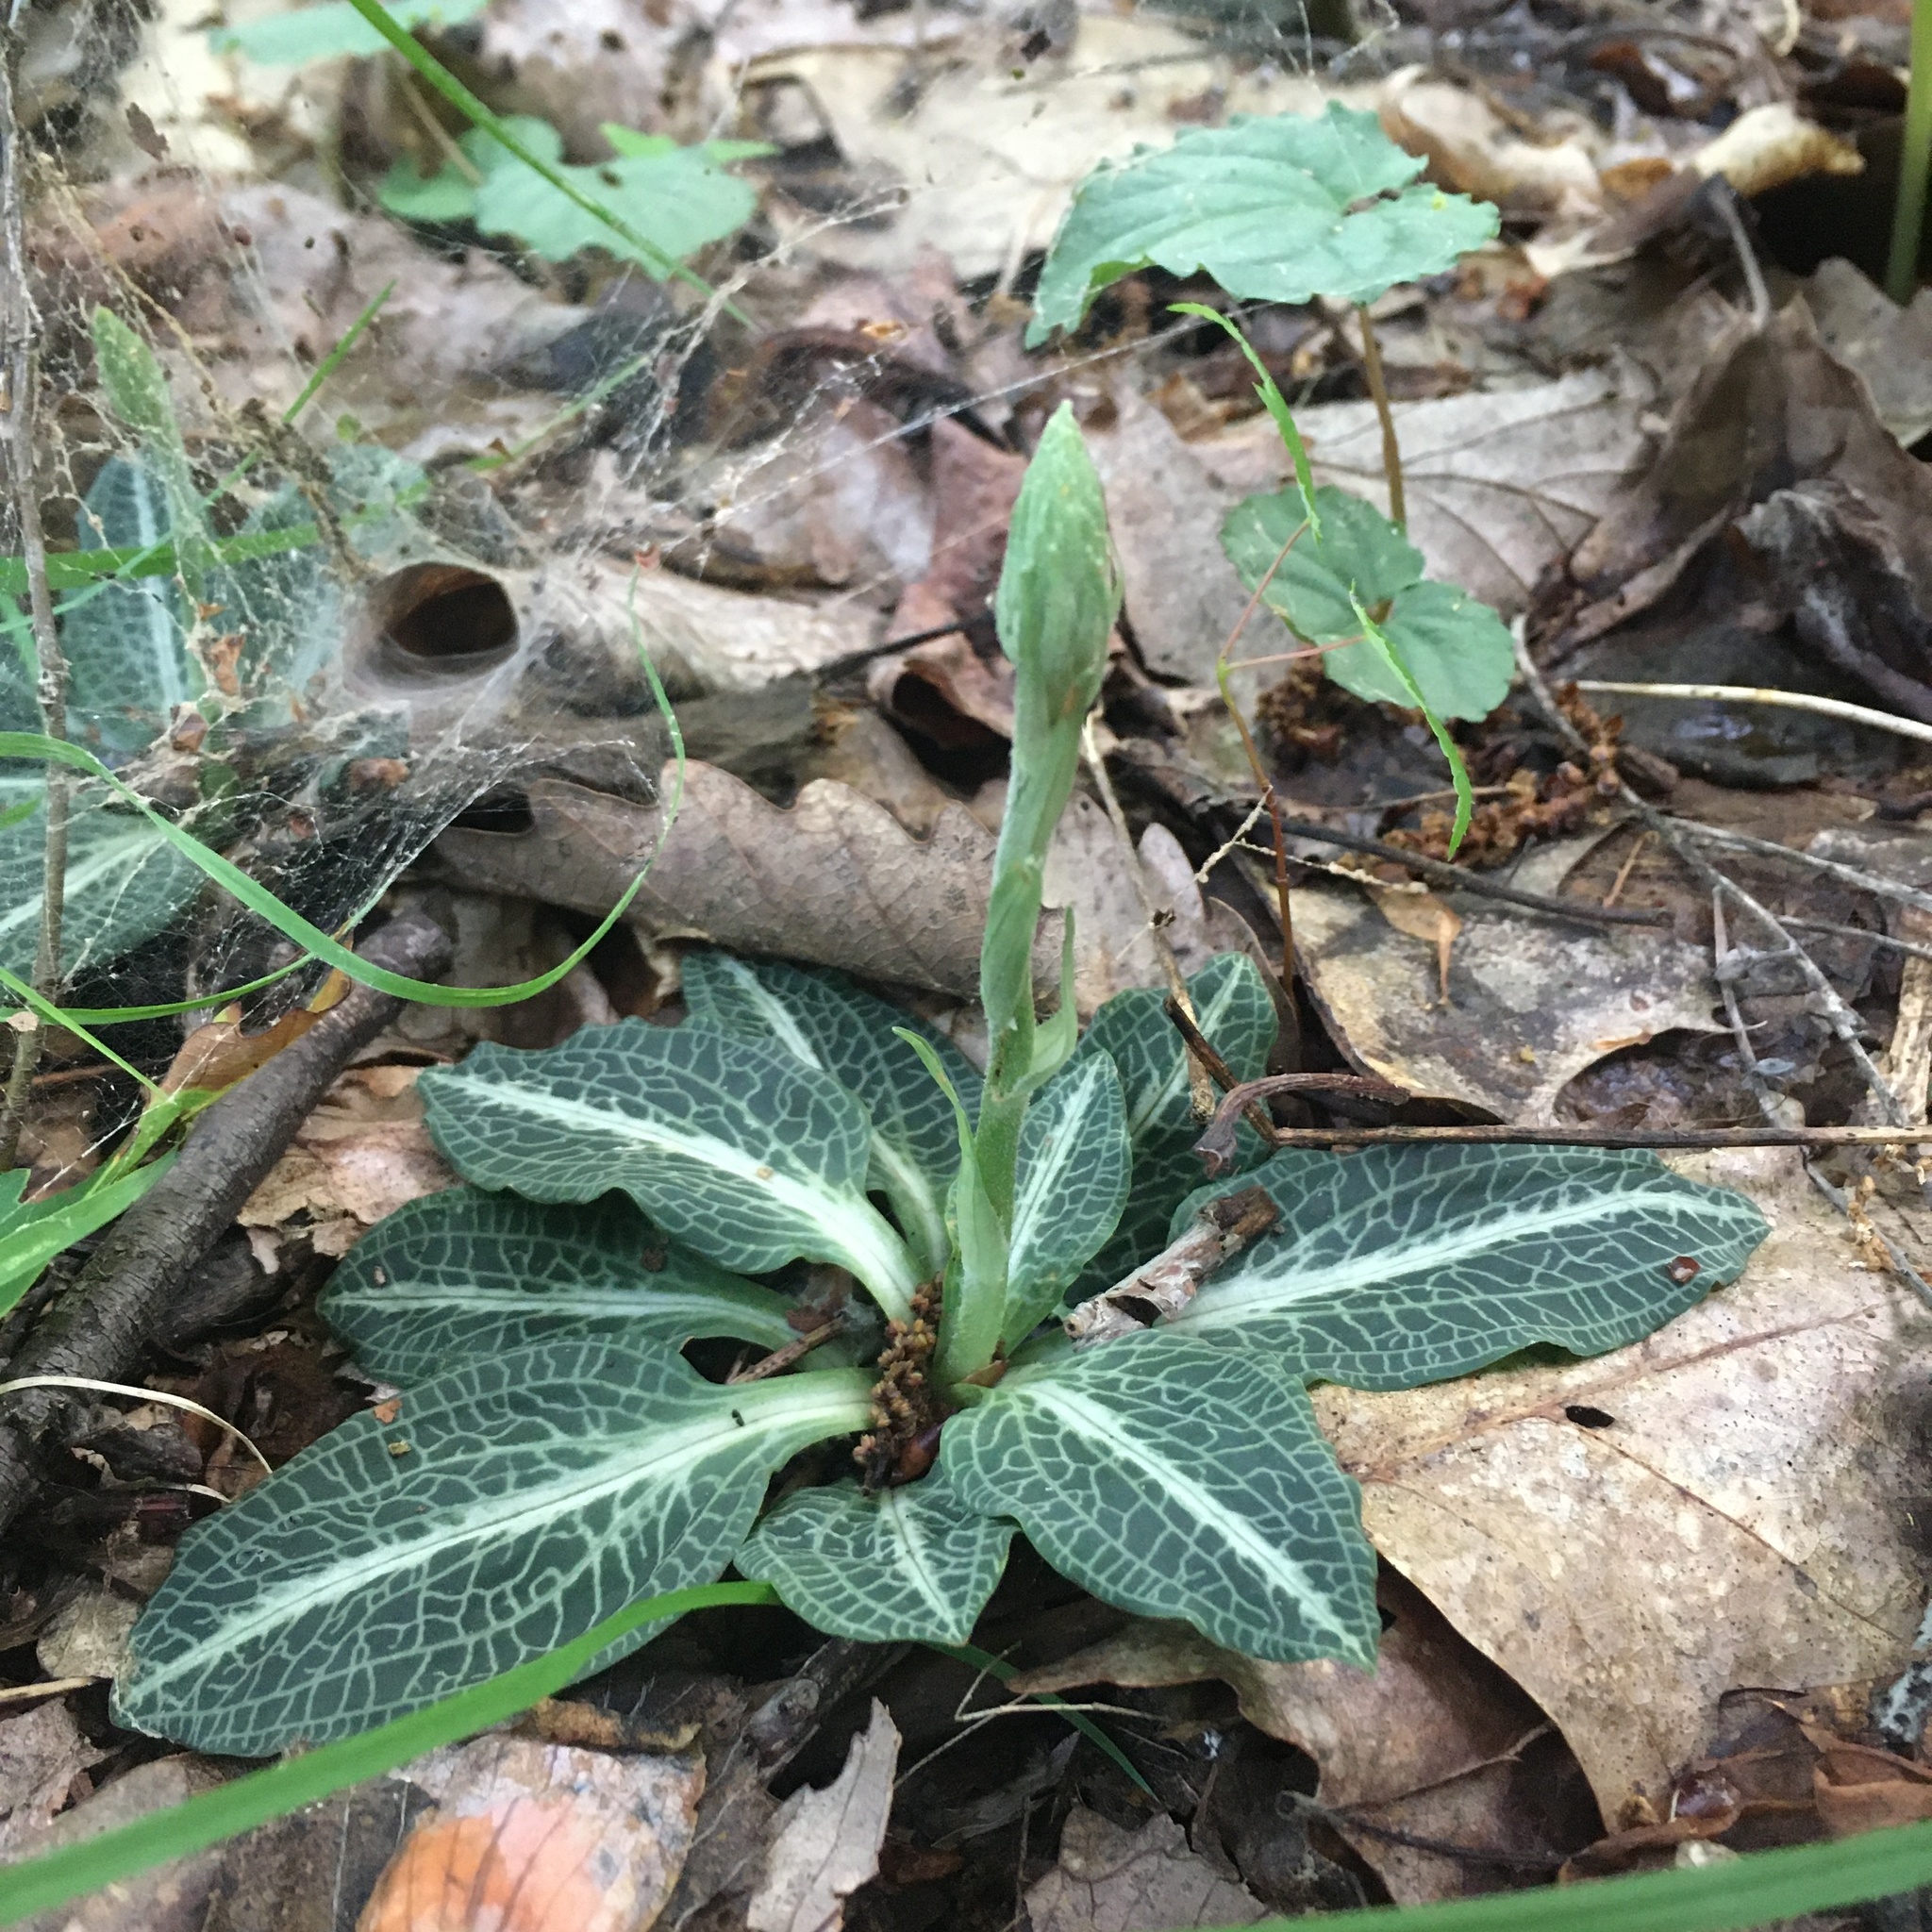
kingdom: Plantae
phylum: Tracheophyta
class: Liliopsida
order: Asparagales
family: Orchidaceae
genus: Goodyera
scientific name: Goodyera pubescens
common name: Downy rattlesnake-plantain
